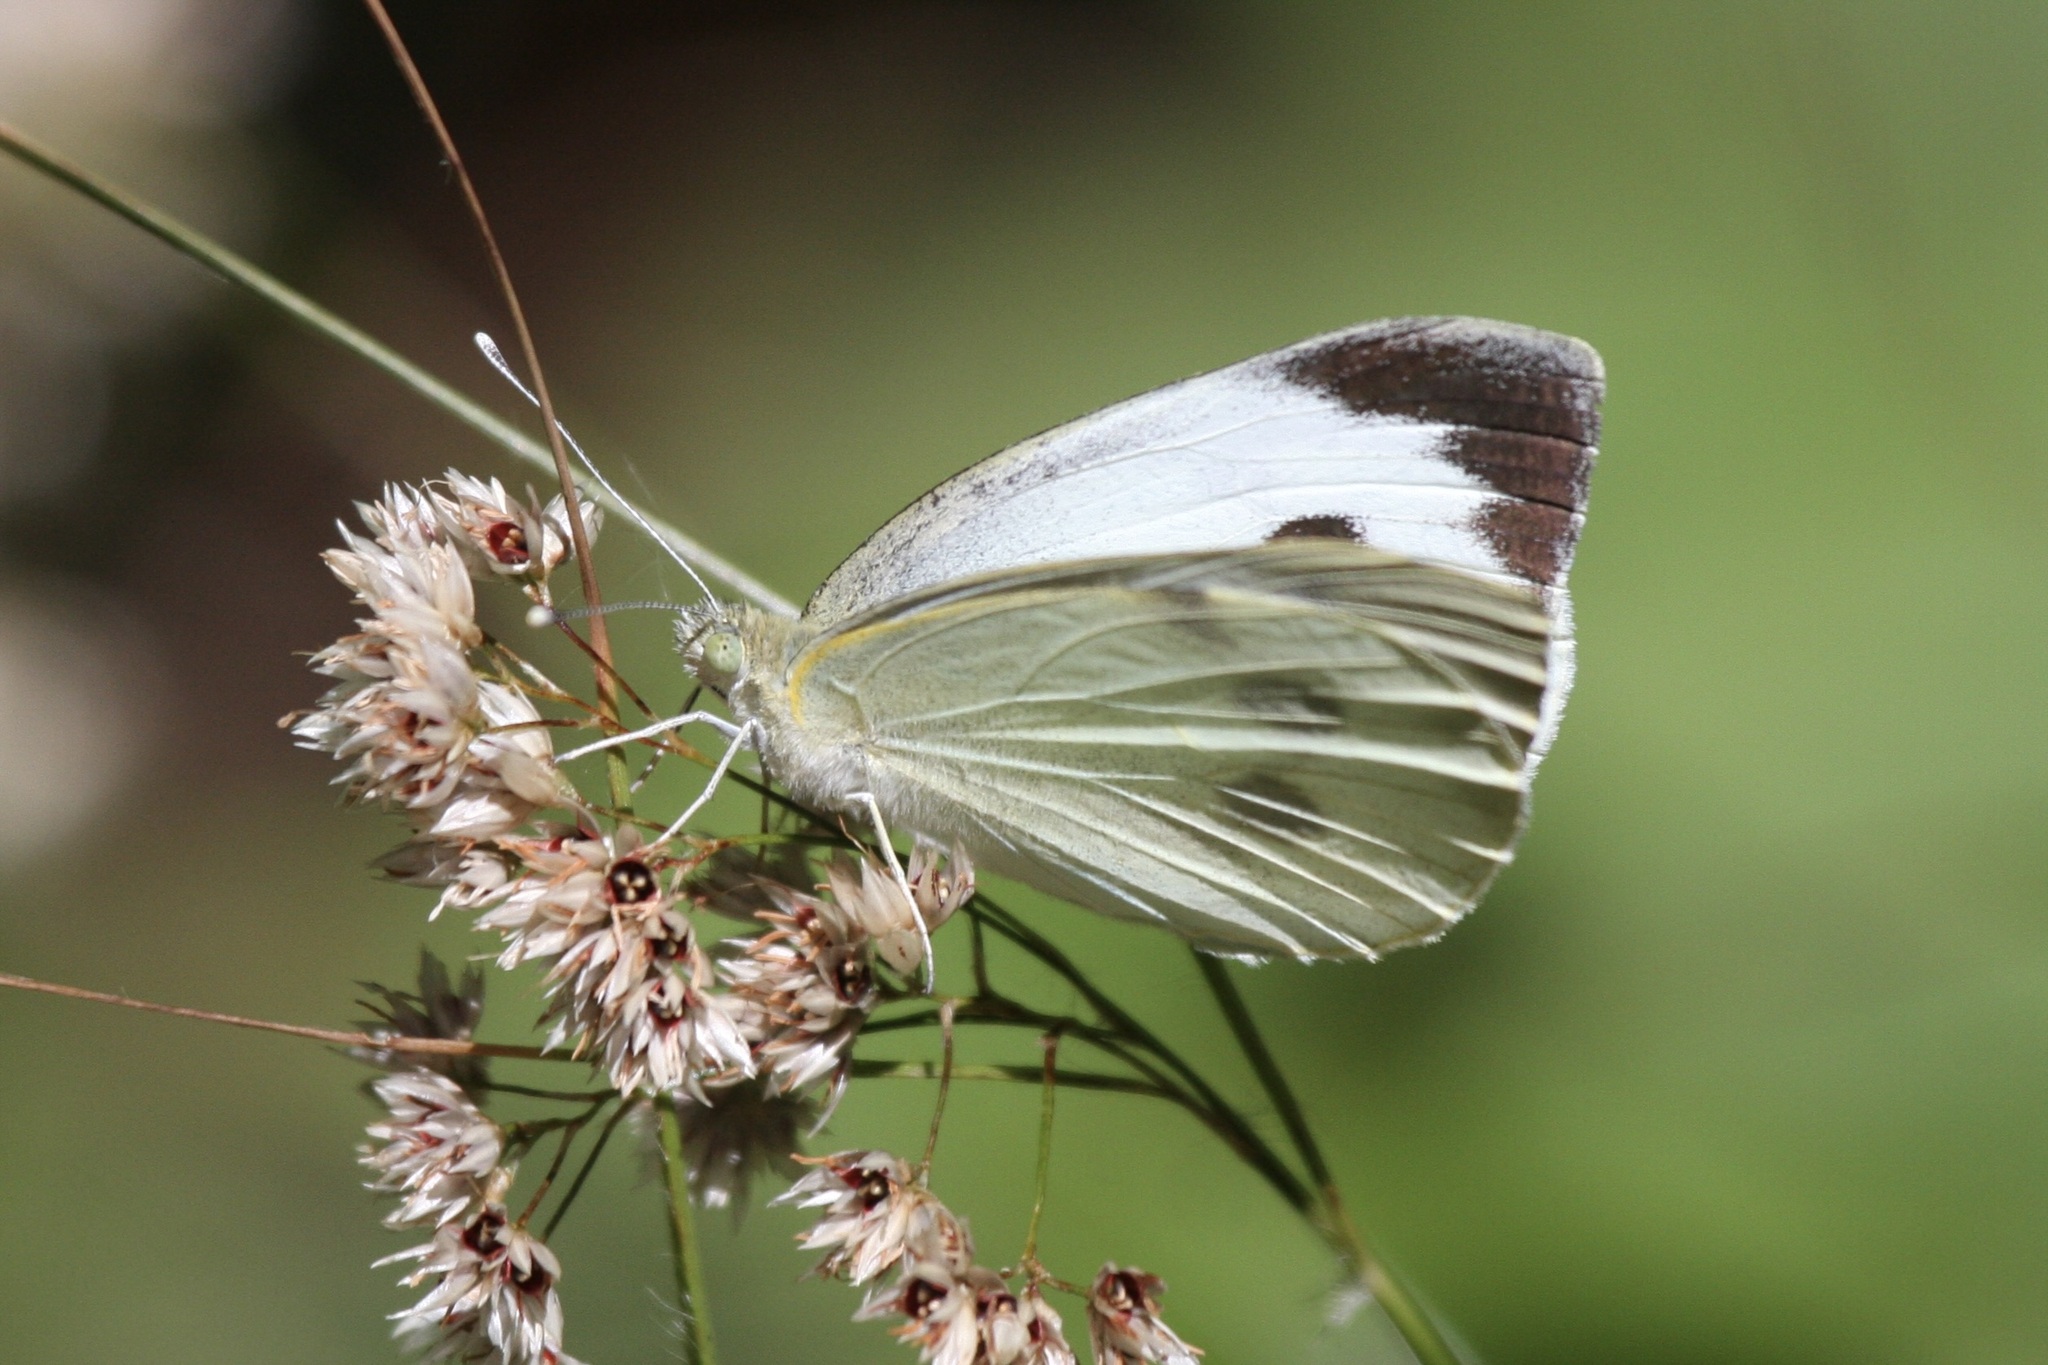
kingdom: Animalia
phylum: Arthropoda
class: Insecta
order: Lepidoptera
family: Pieridae
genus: Pieris
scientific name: Pieris brassicae
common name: Large white
